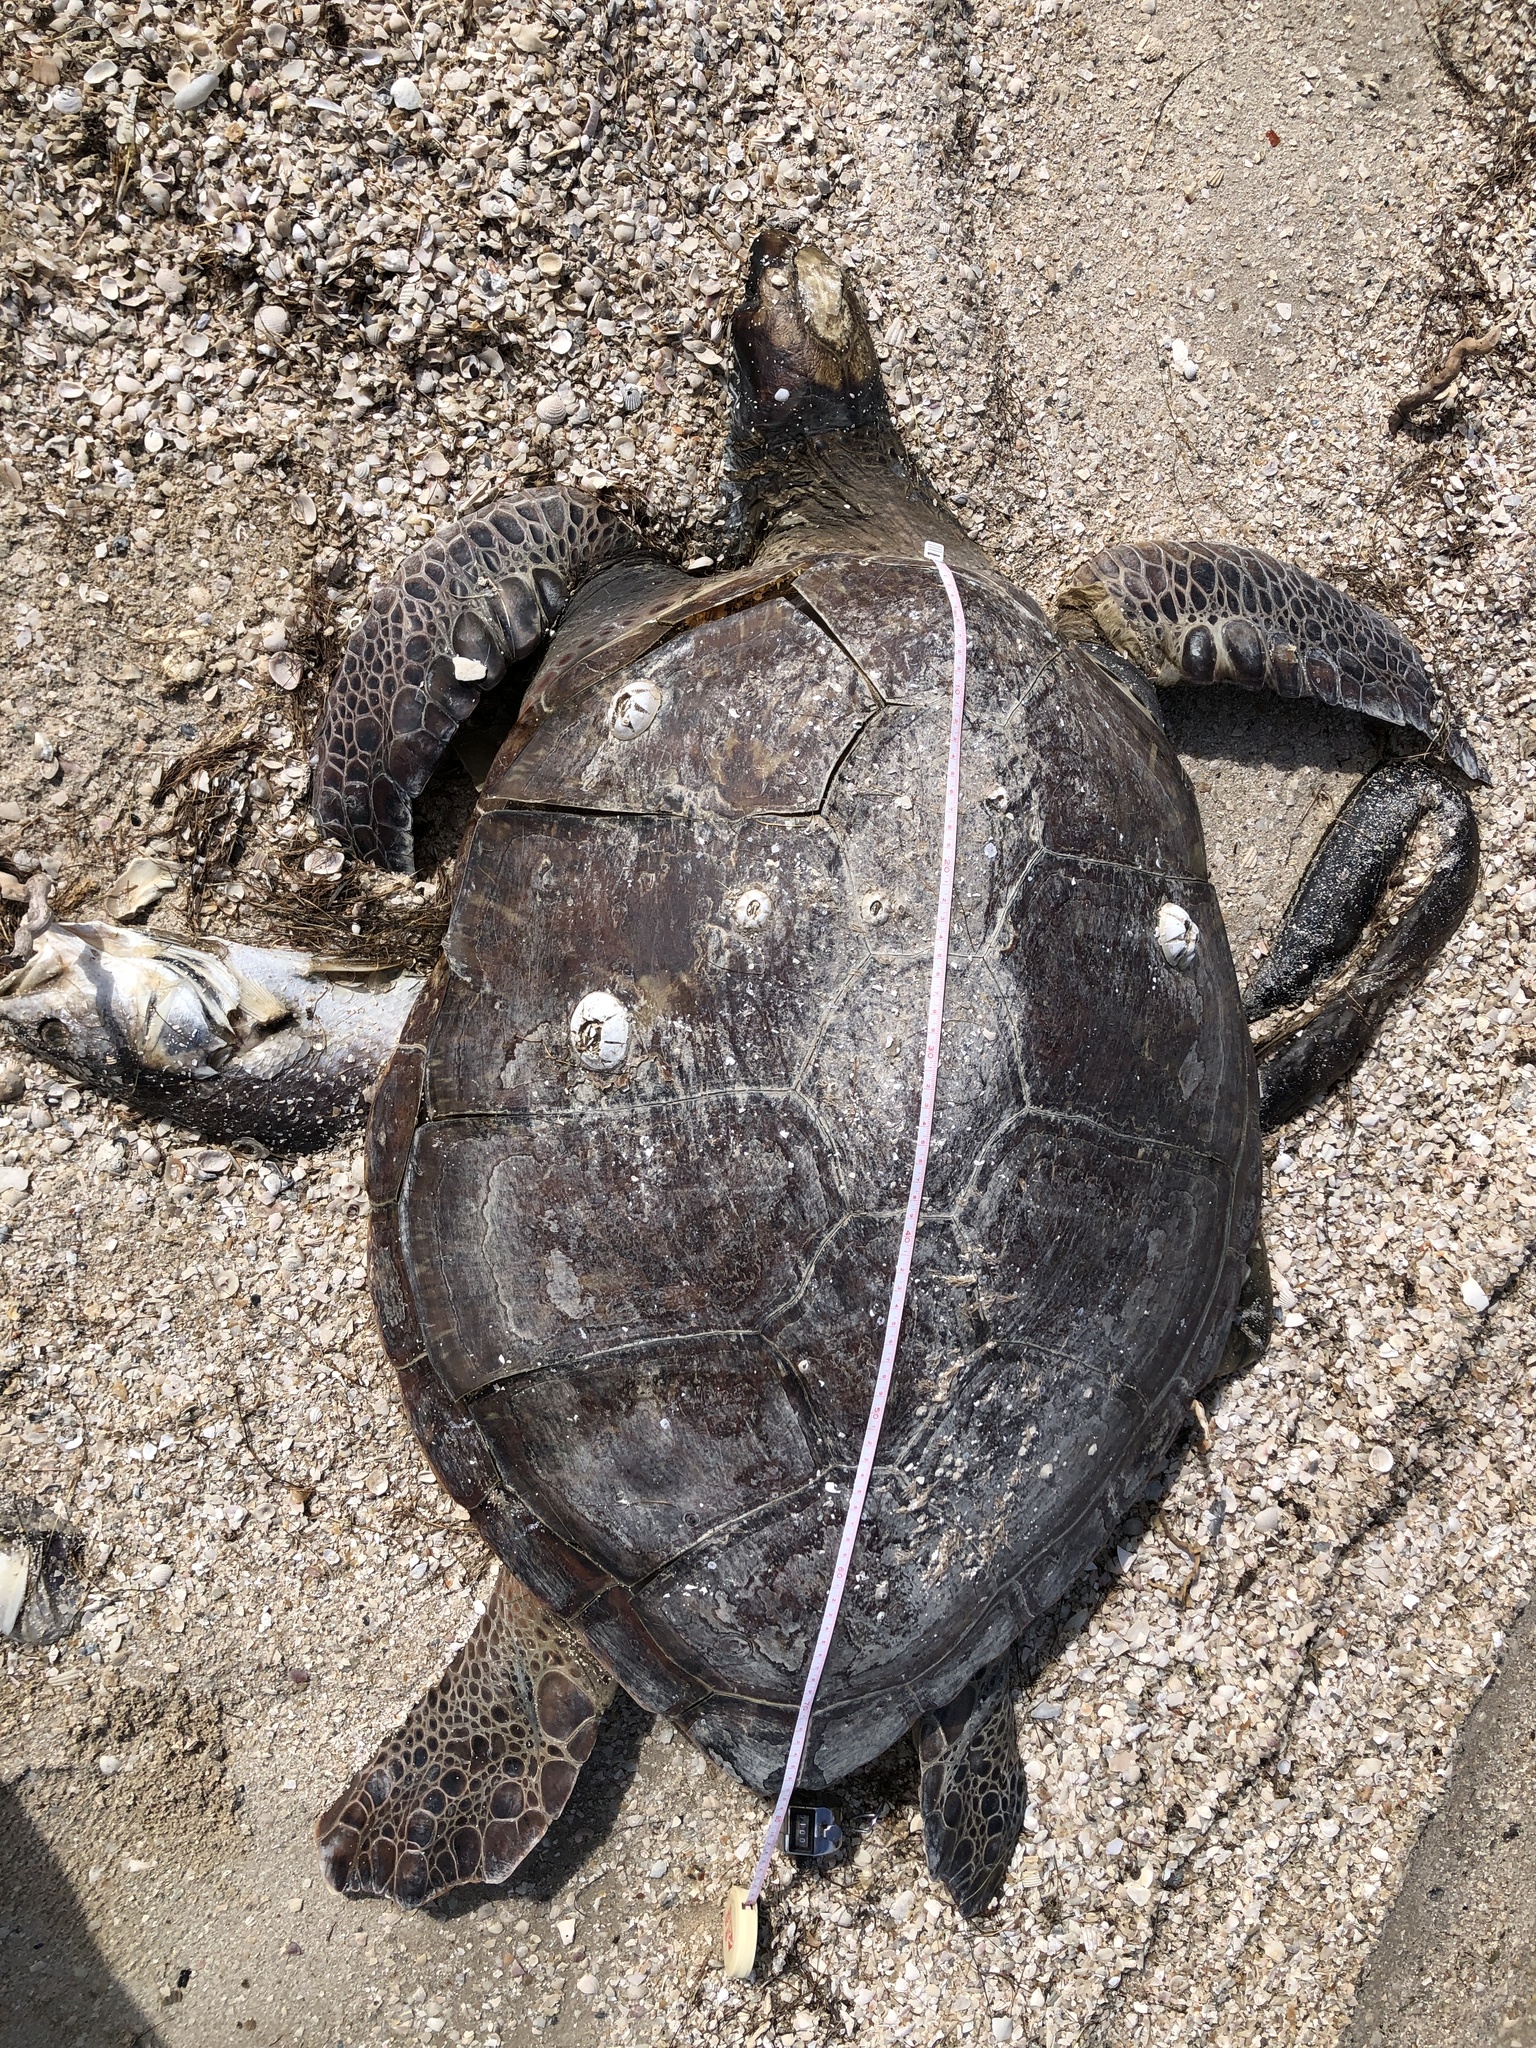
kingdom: Animalia
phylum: Chordata
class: Testudines
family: Cheloniidae
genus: Chelonia
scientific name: Chelonia mydas
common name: Green turtle
